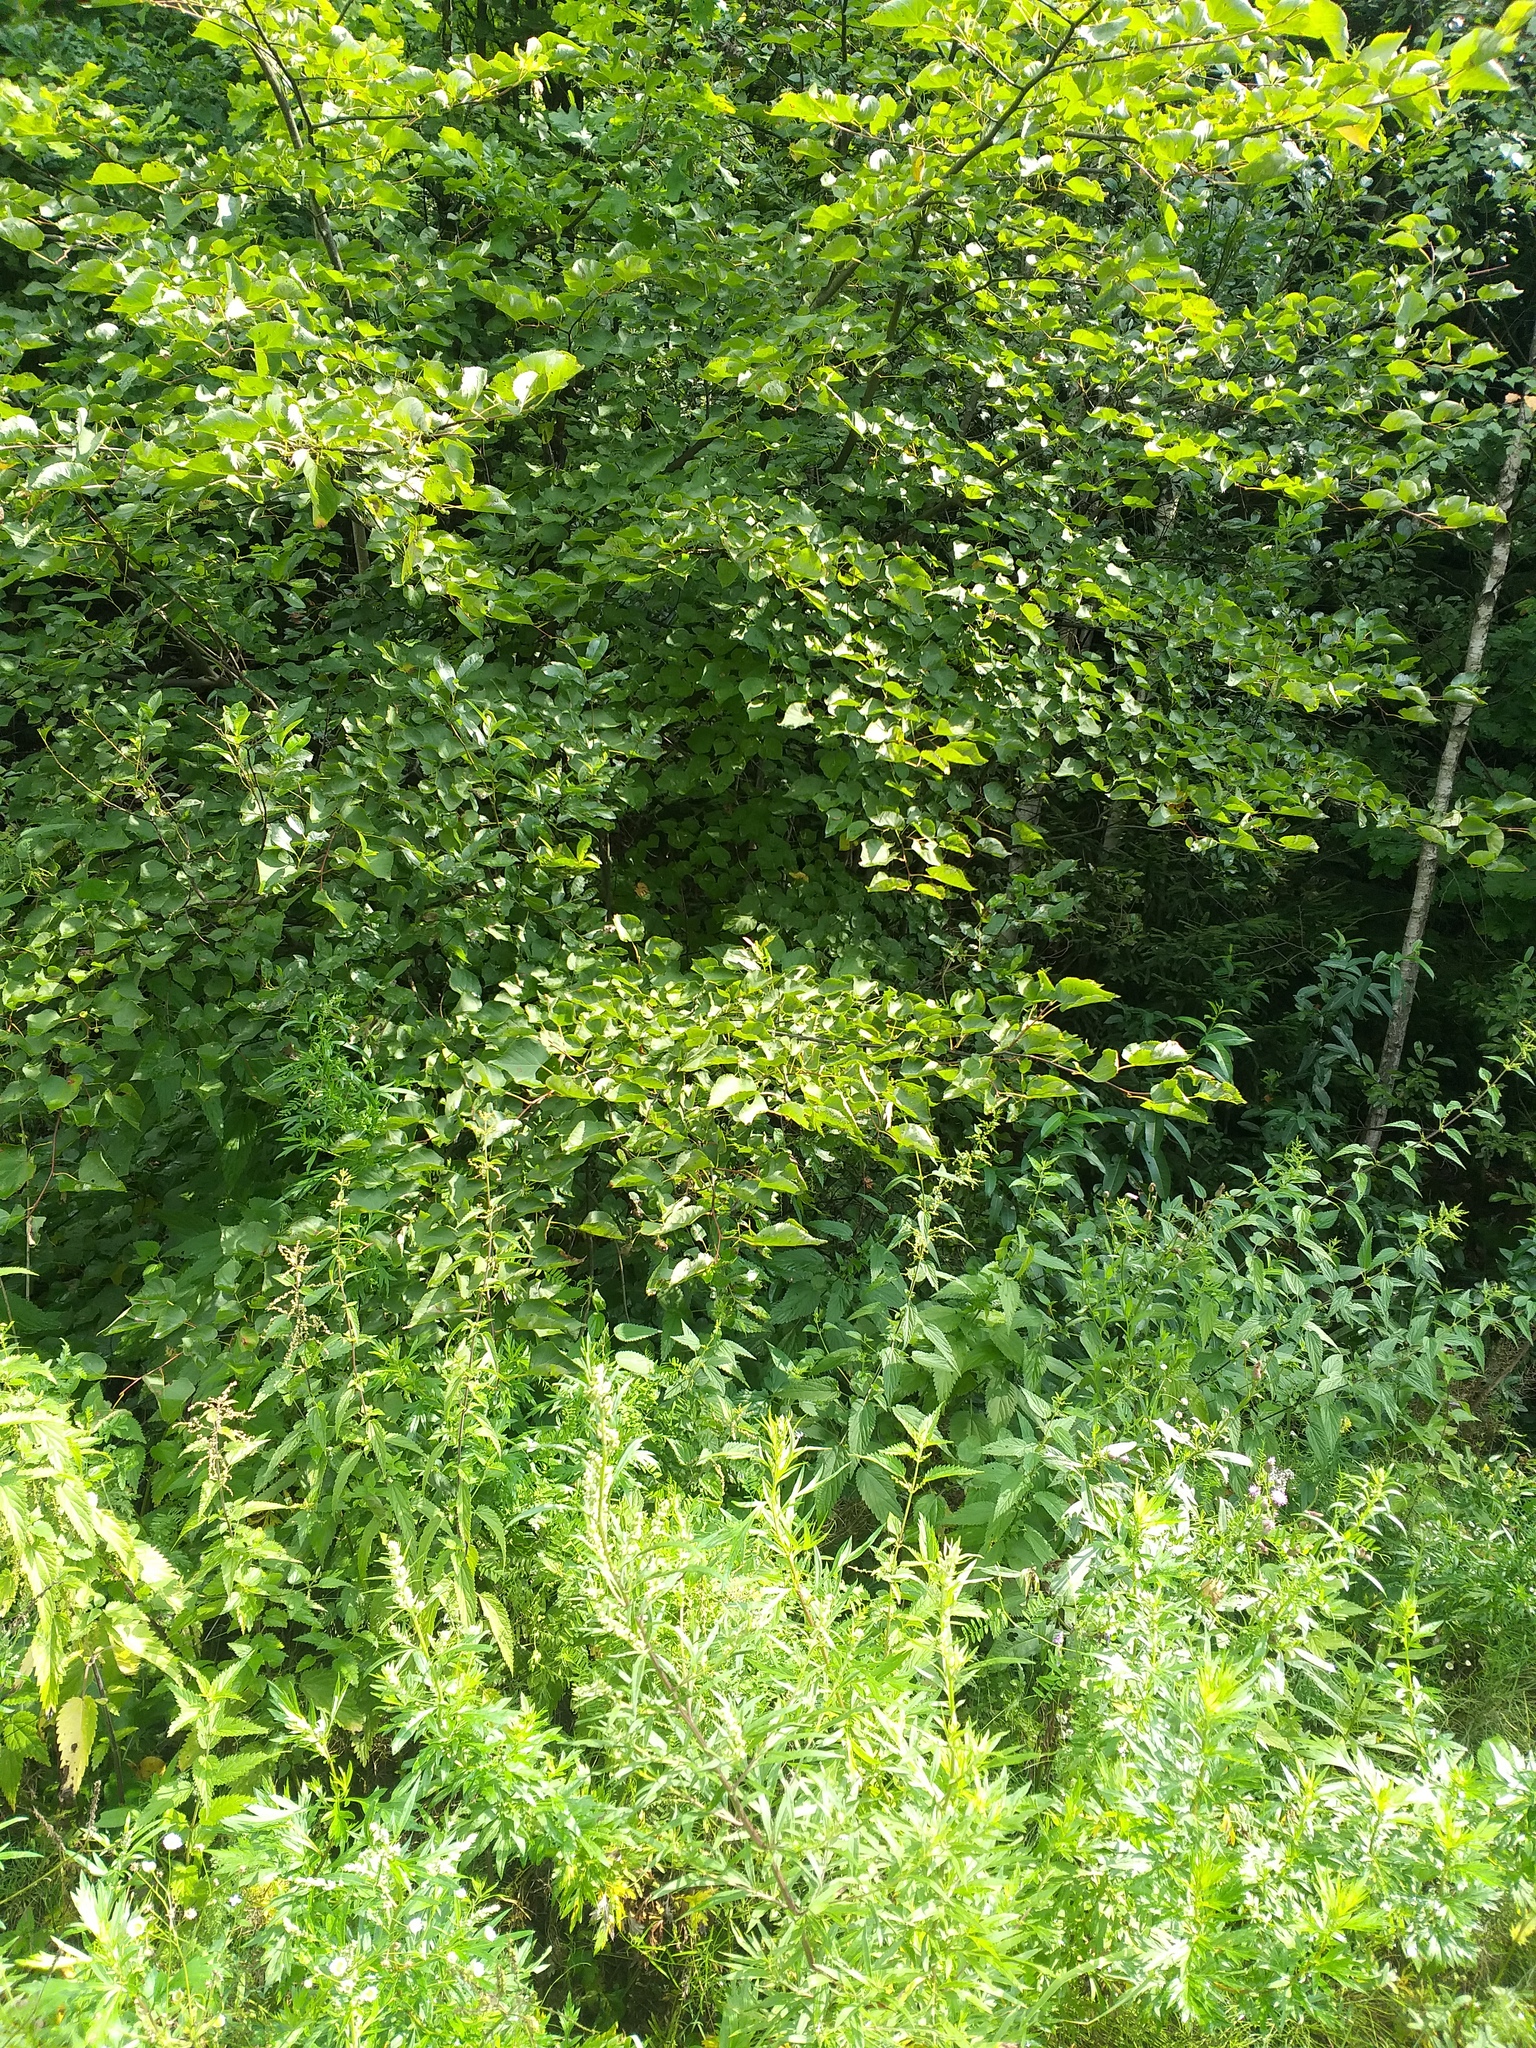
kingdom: Plantae
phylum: Tracheophyta
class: Magnoliopsida
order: Malvales
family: Malvaceae
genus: Tilia
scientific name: Tilia cordata
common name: Small-leaved lime
